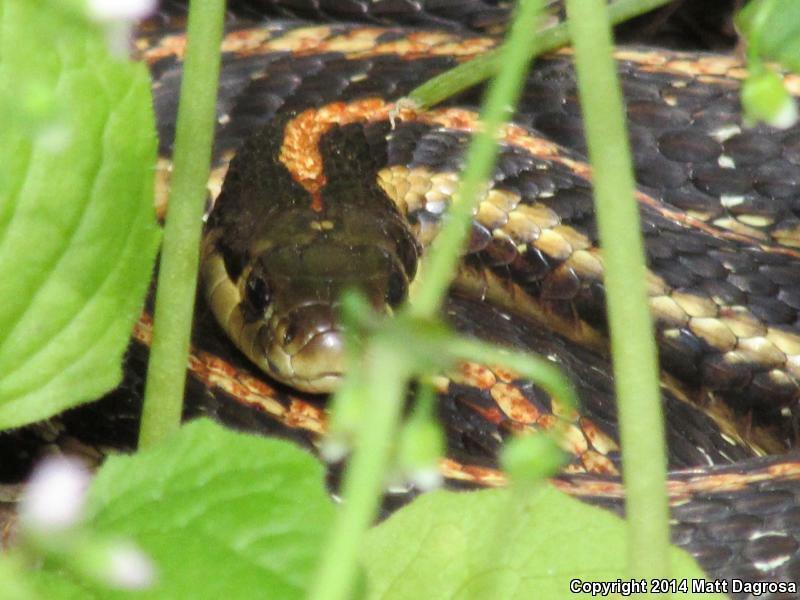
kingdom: Animalia
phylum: Chordata
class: Squamata
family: Colubridae
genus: Thamnophis
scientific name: Thamnophis ordinoides
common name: Northwestern garter snake
